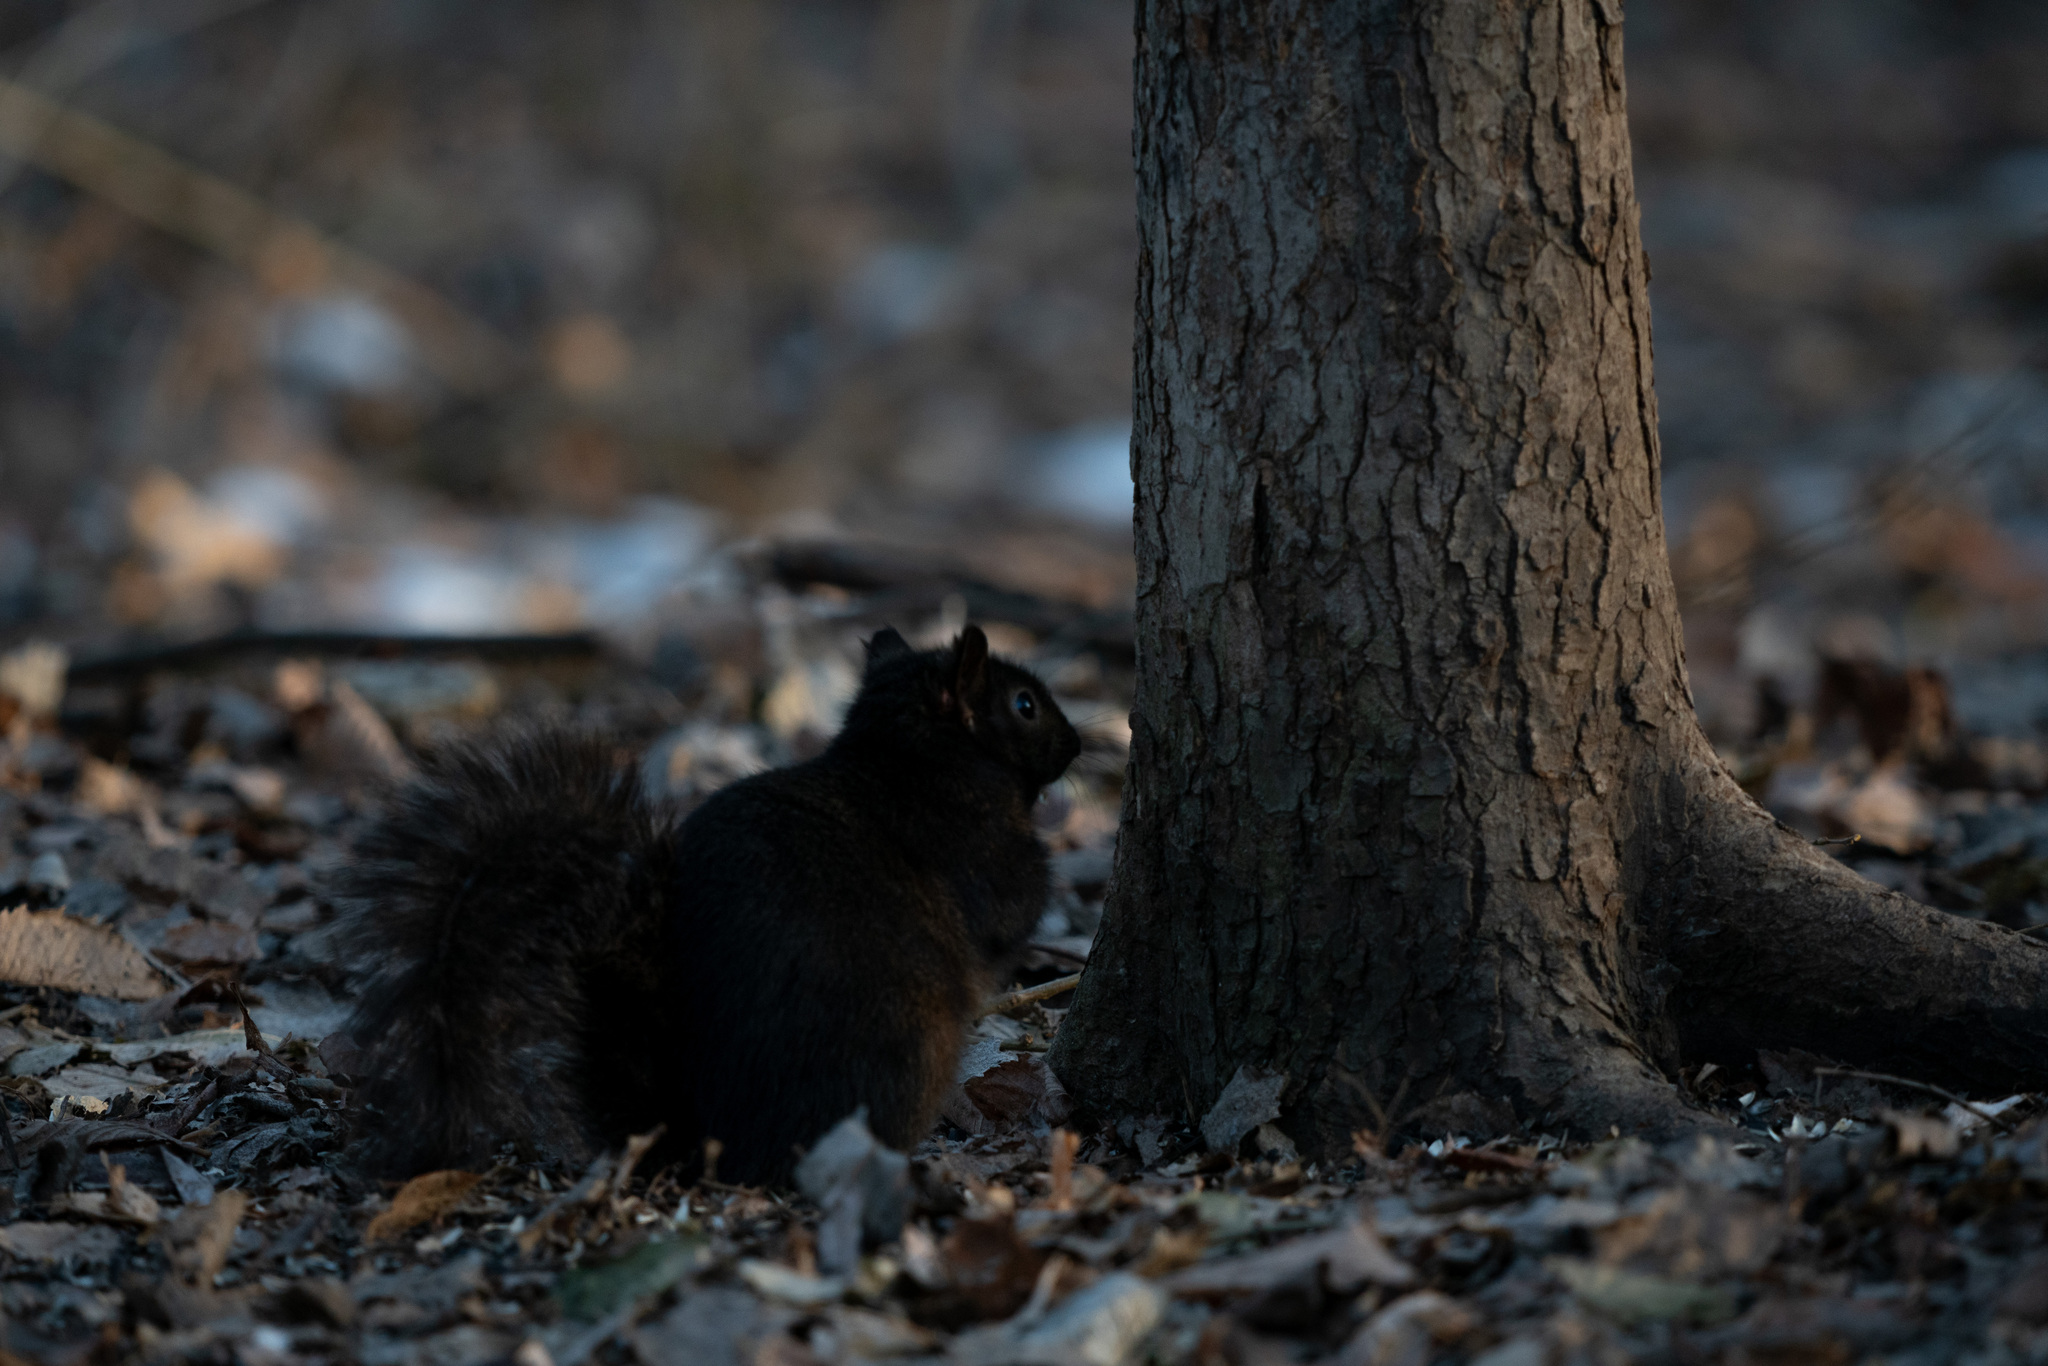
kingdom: Animalia
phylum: Chordata
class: Mammalia
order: Rodentia
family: Sciuridae
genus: Sciurus
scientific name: Sciurus carolinensis
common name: Eastern gray squirrel
